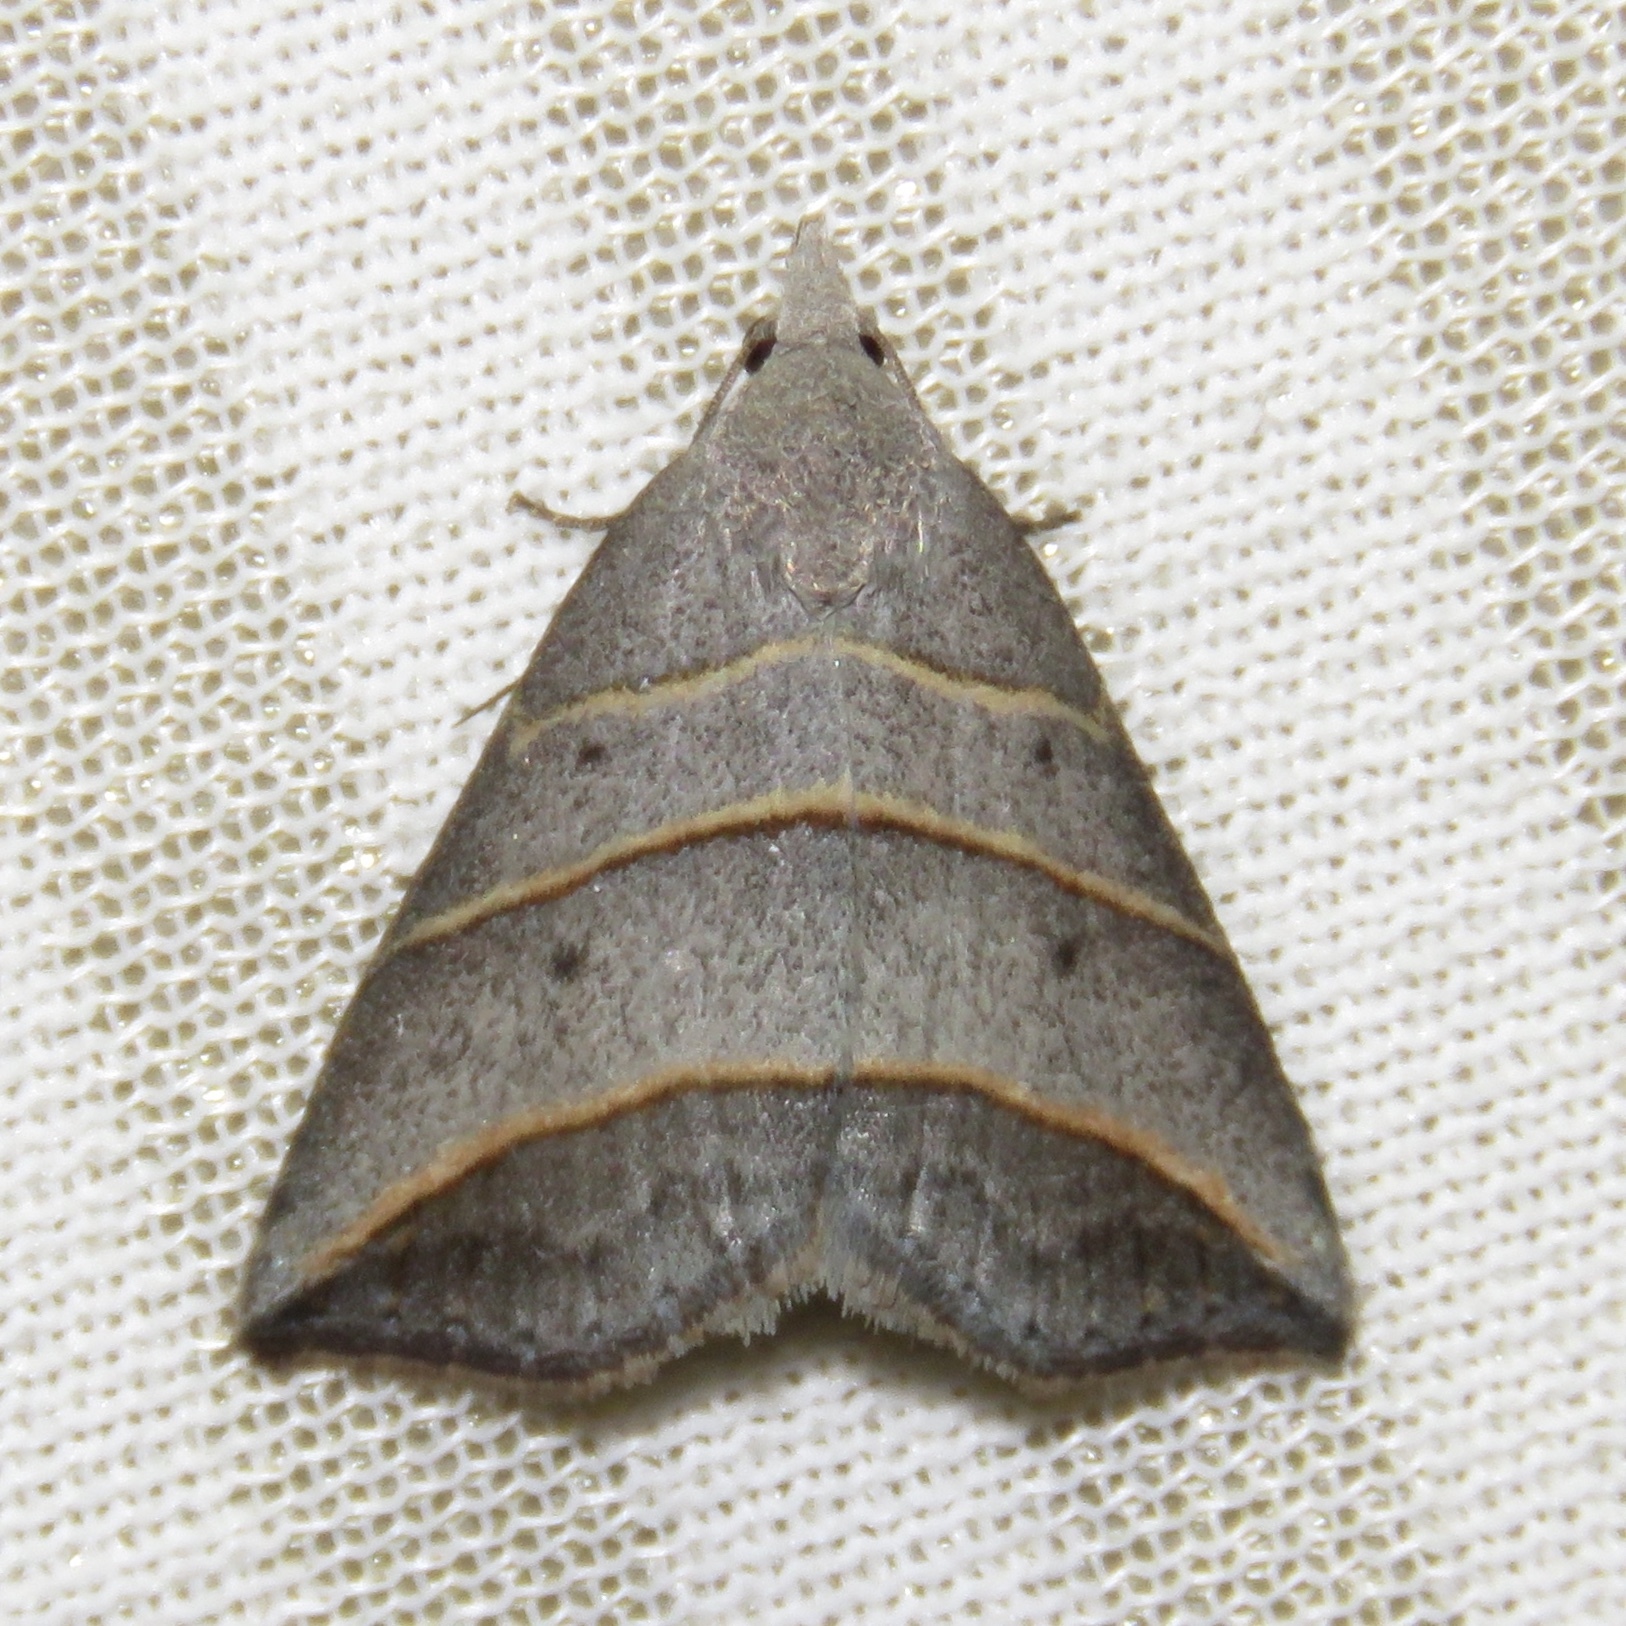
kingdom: Animalia
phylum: Arthropoda
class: Insecta
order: Lepidoptera
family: Erebidae
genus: Colobochyla
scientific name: Colobochyla interpuncta
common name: Yellow-lined owlet
